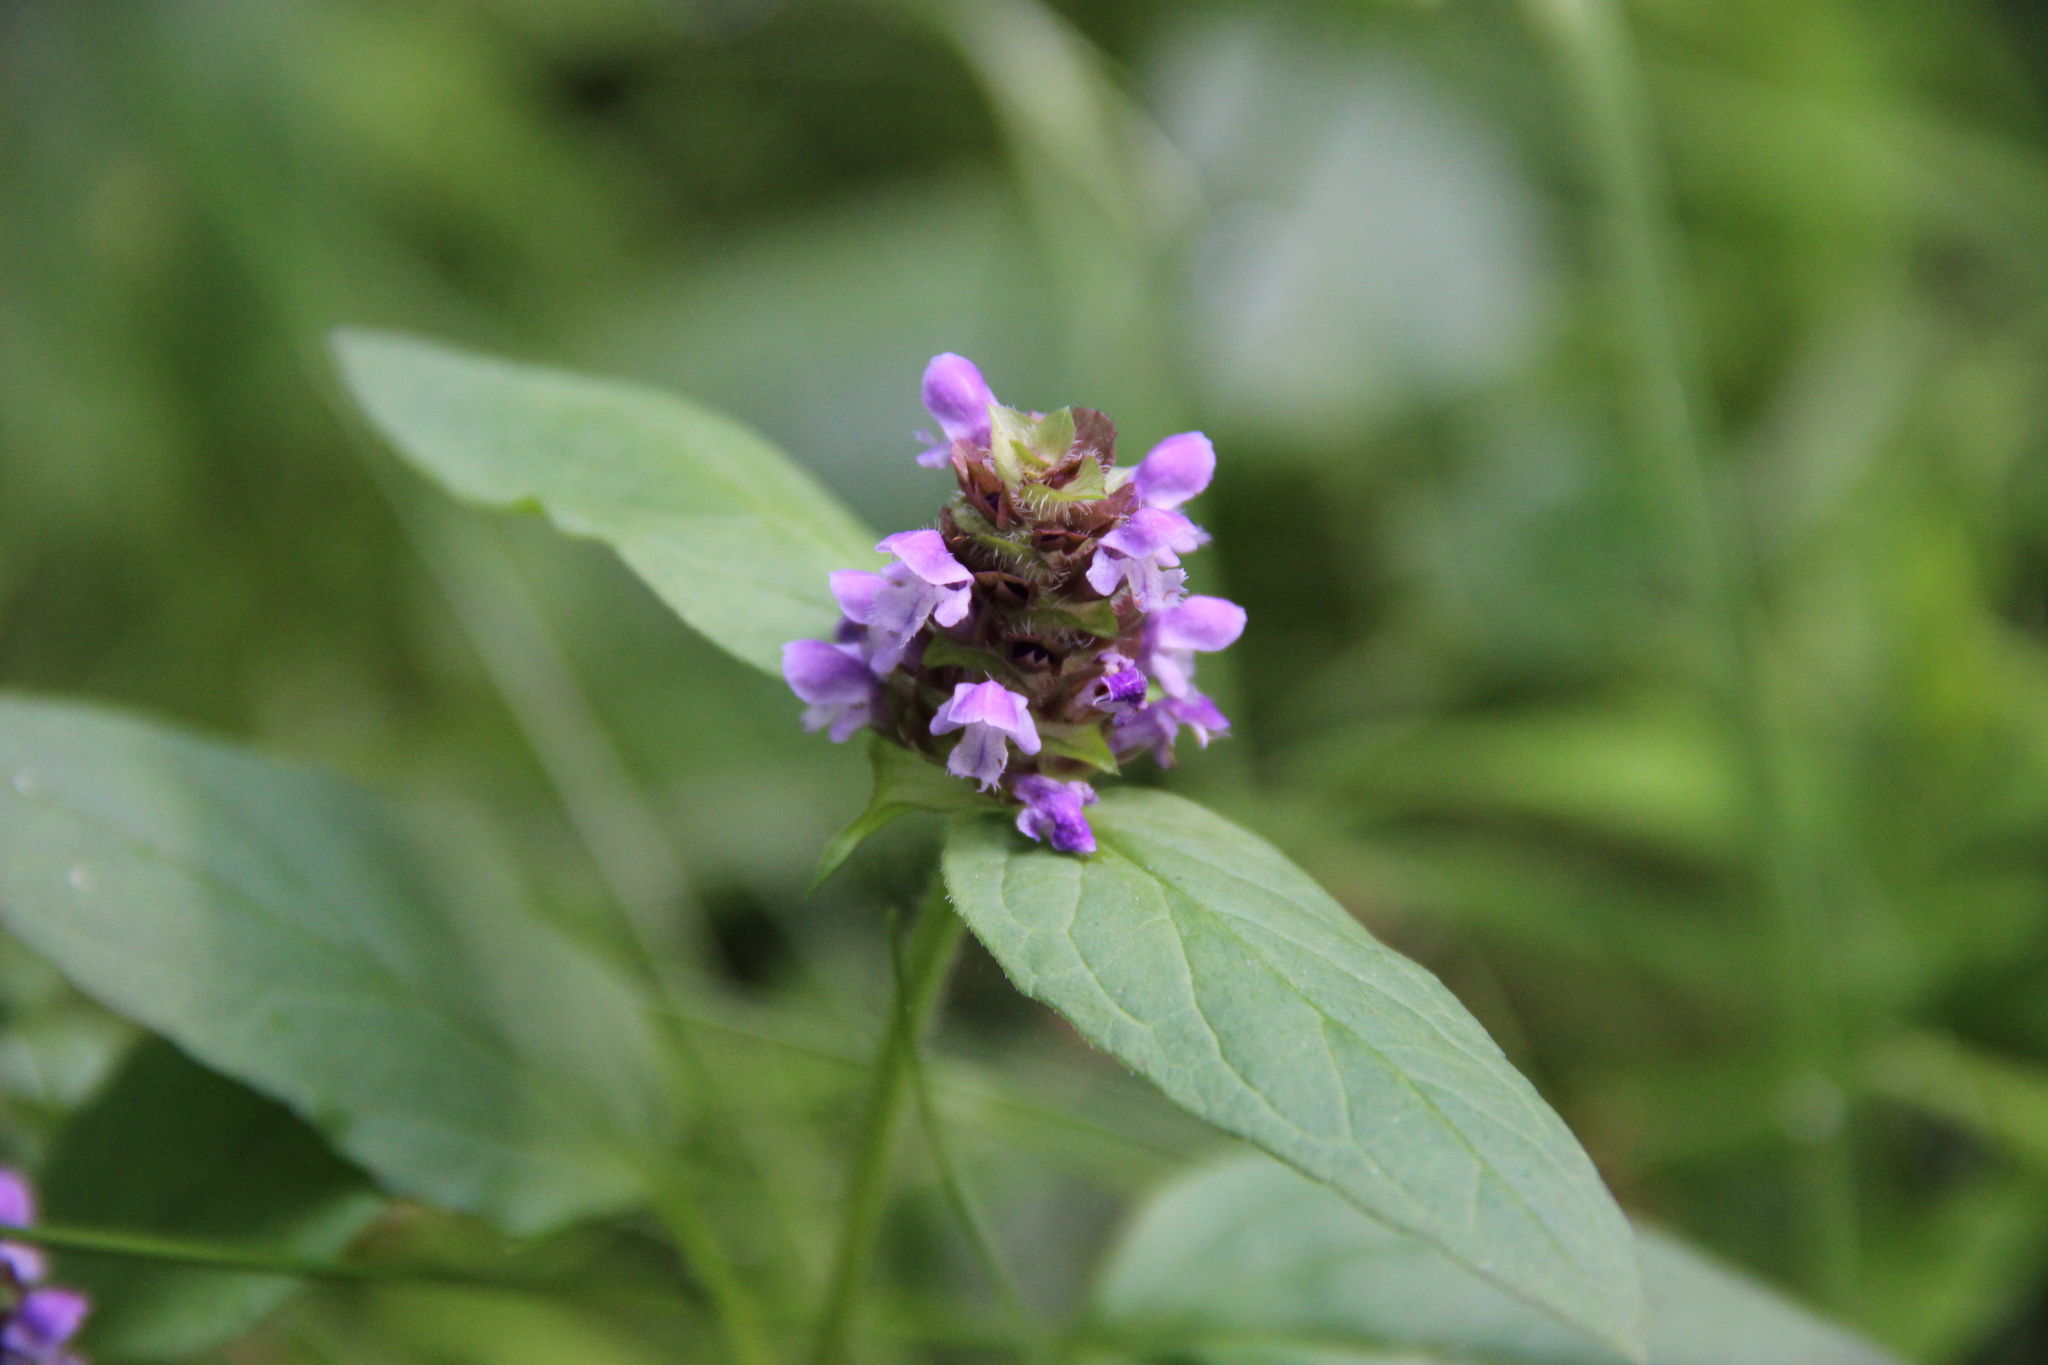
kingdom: Plantae
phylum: Tracheophyta
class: Magnoliopsida
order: Lamiales
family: Lamiaceae
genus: Prunella
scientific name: Prunella vulgaris
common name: Heal-all
